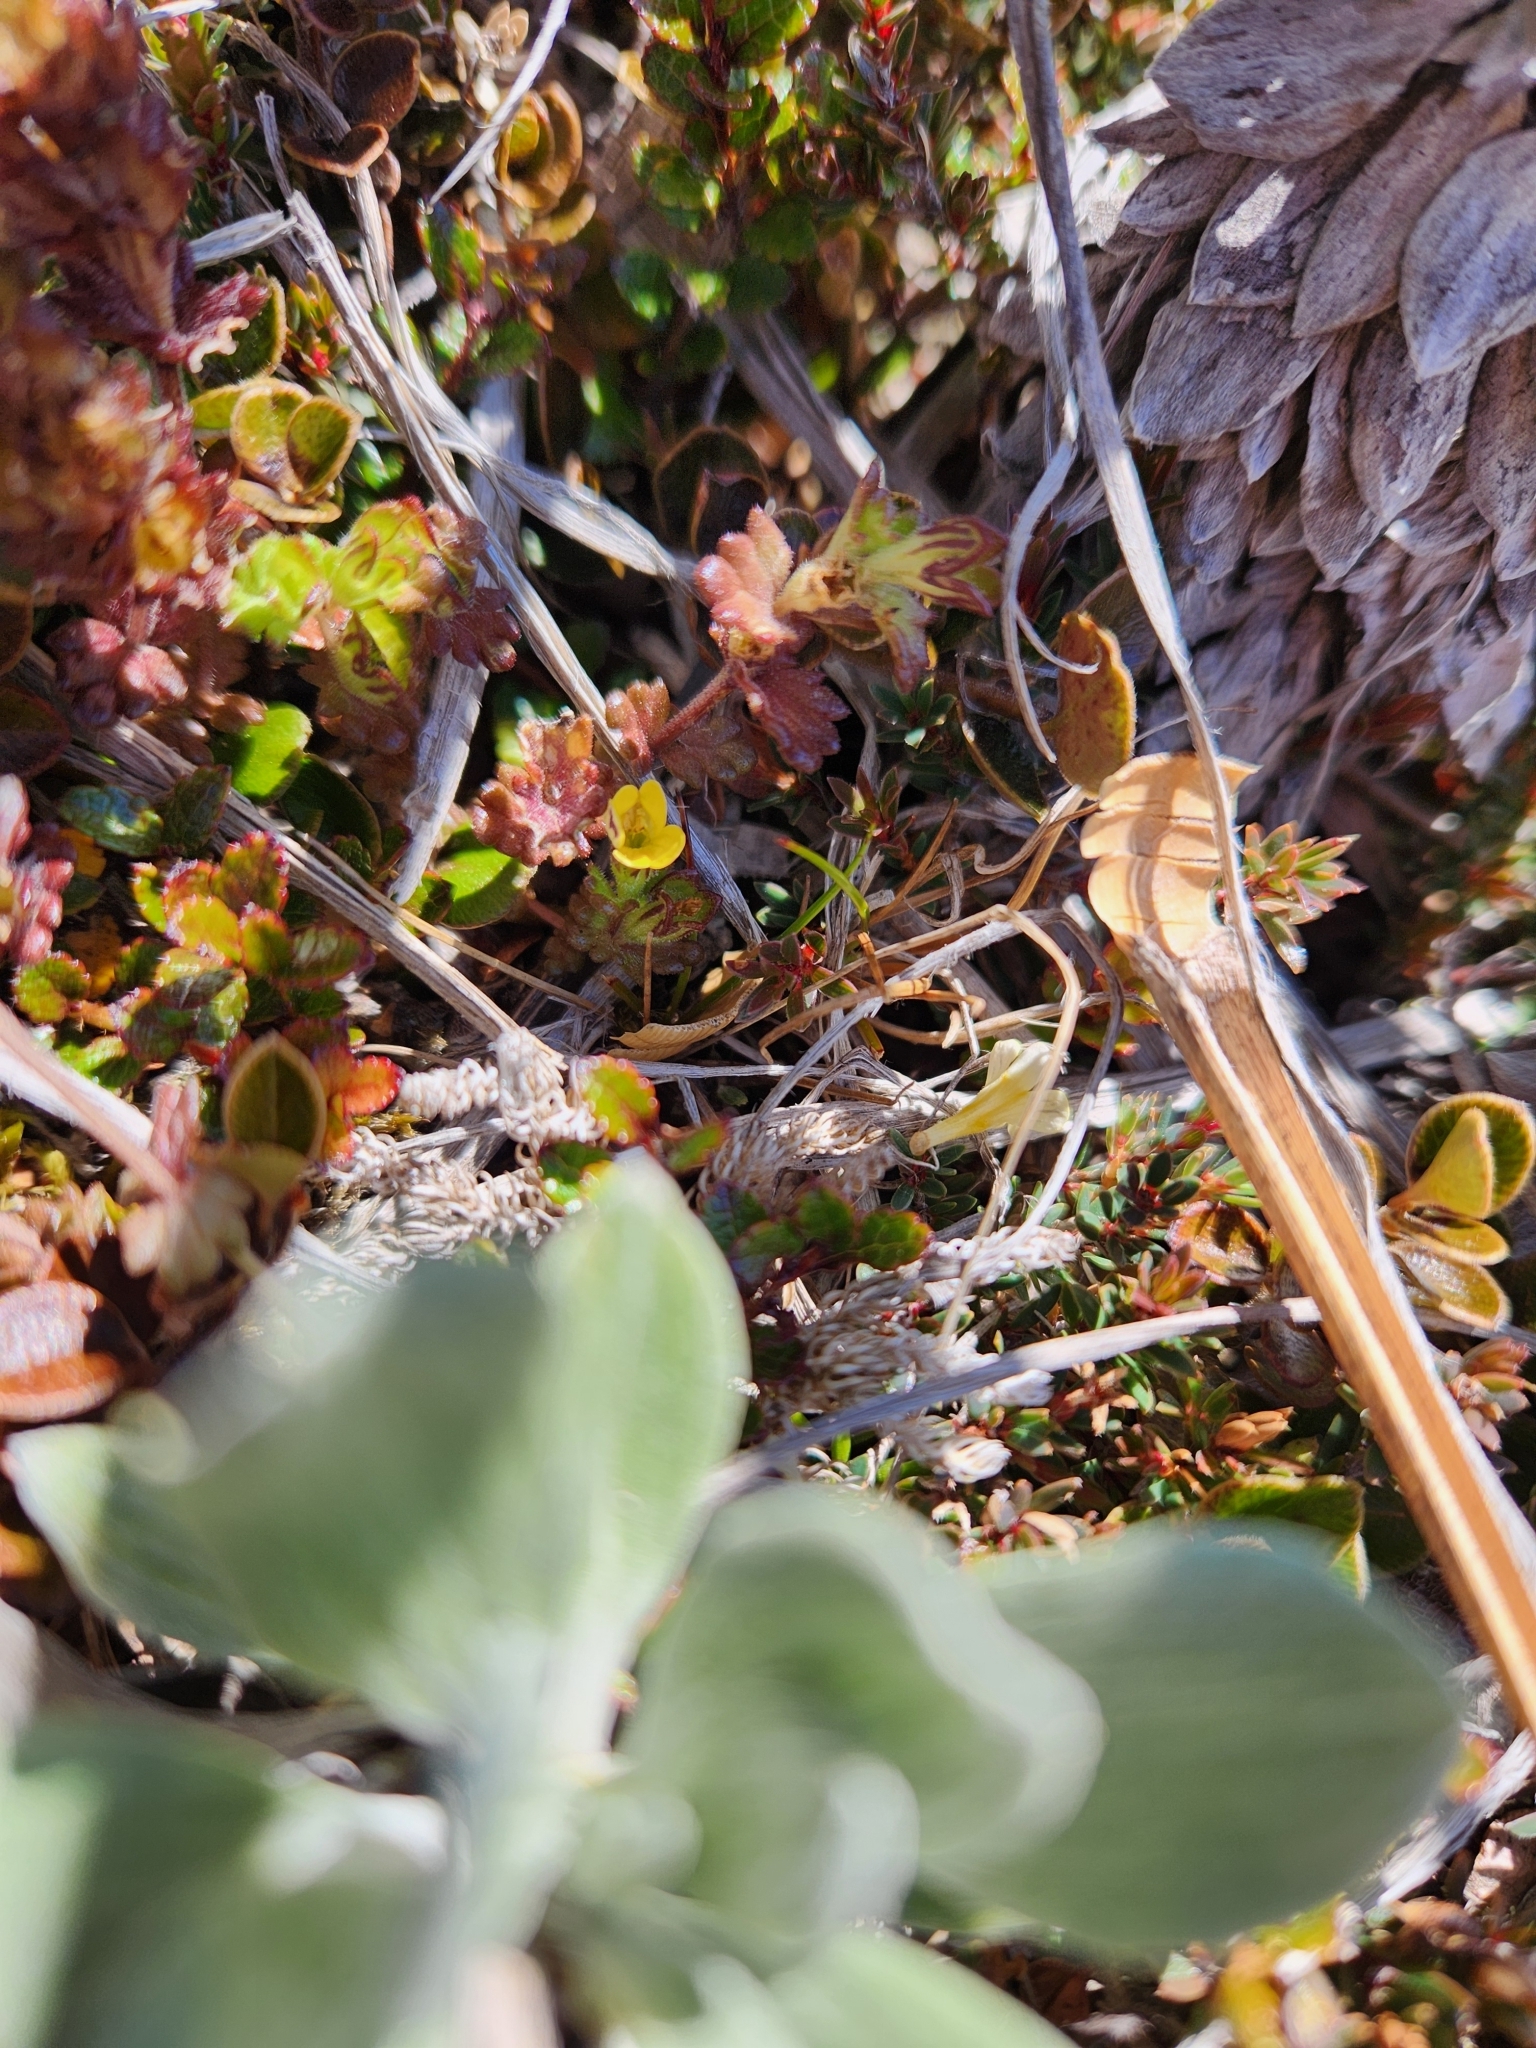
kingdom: Plantae
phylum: Tracheophyta
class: Magnoliopsida
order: Lamiales
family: Orobanchaceae
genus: Euphrasia
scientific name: Euphrasia cockayneana
